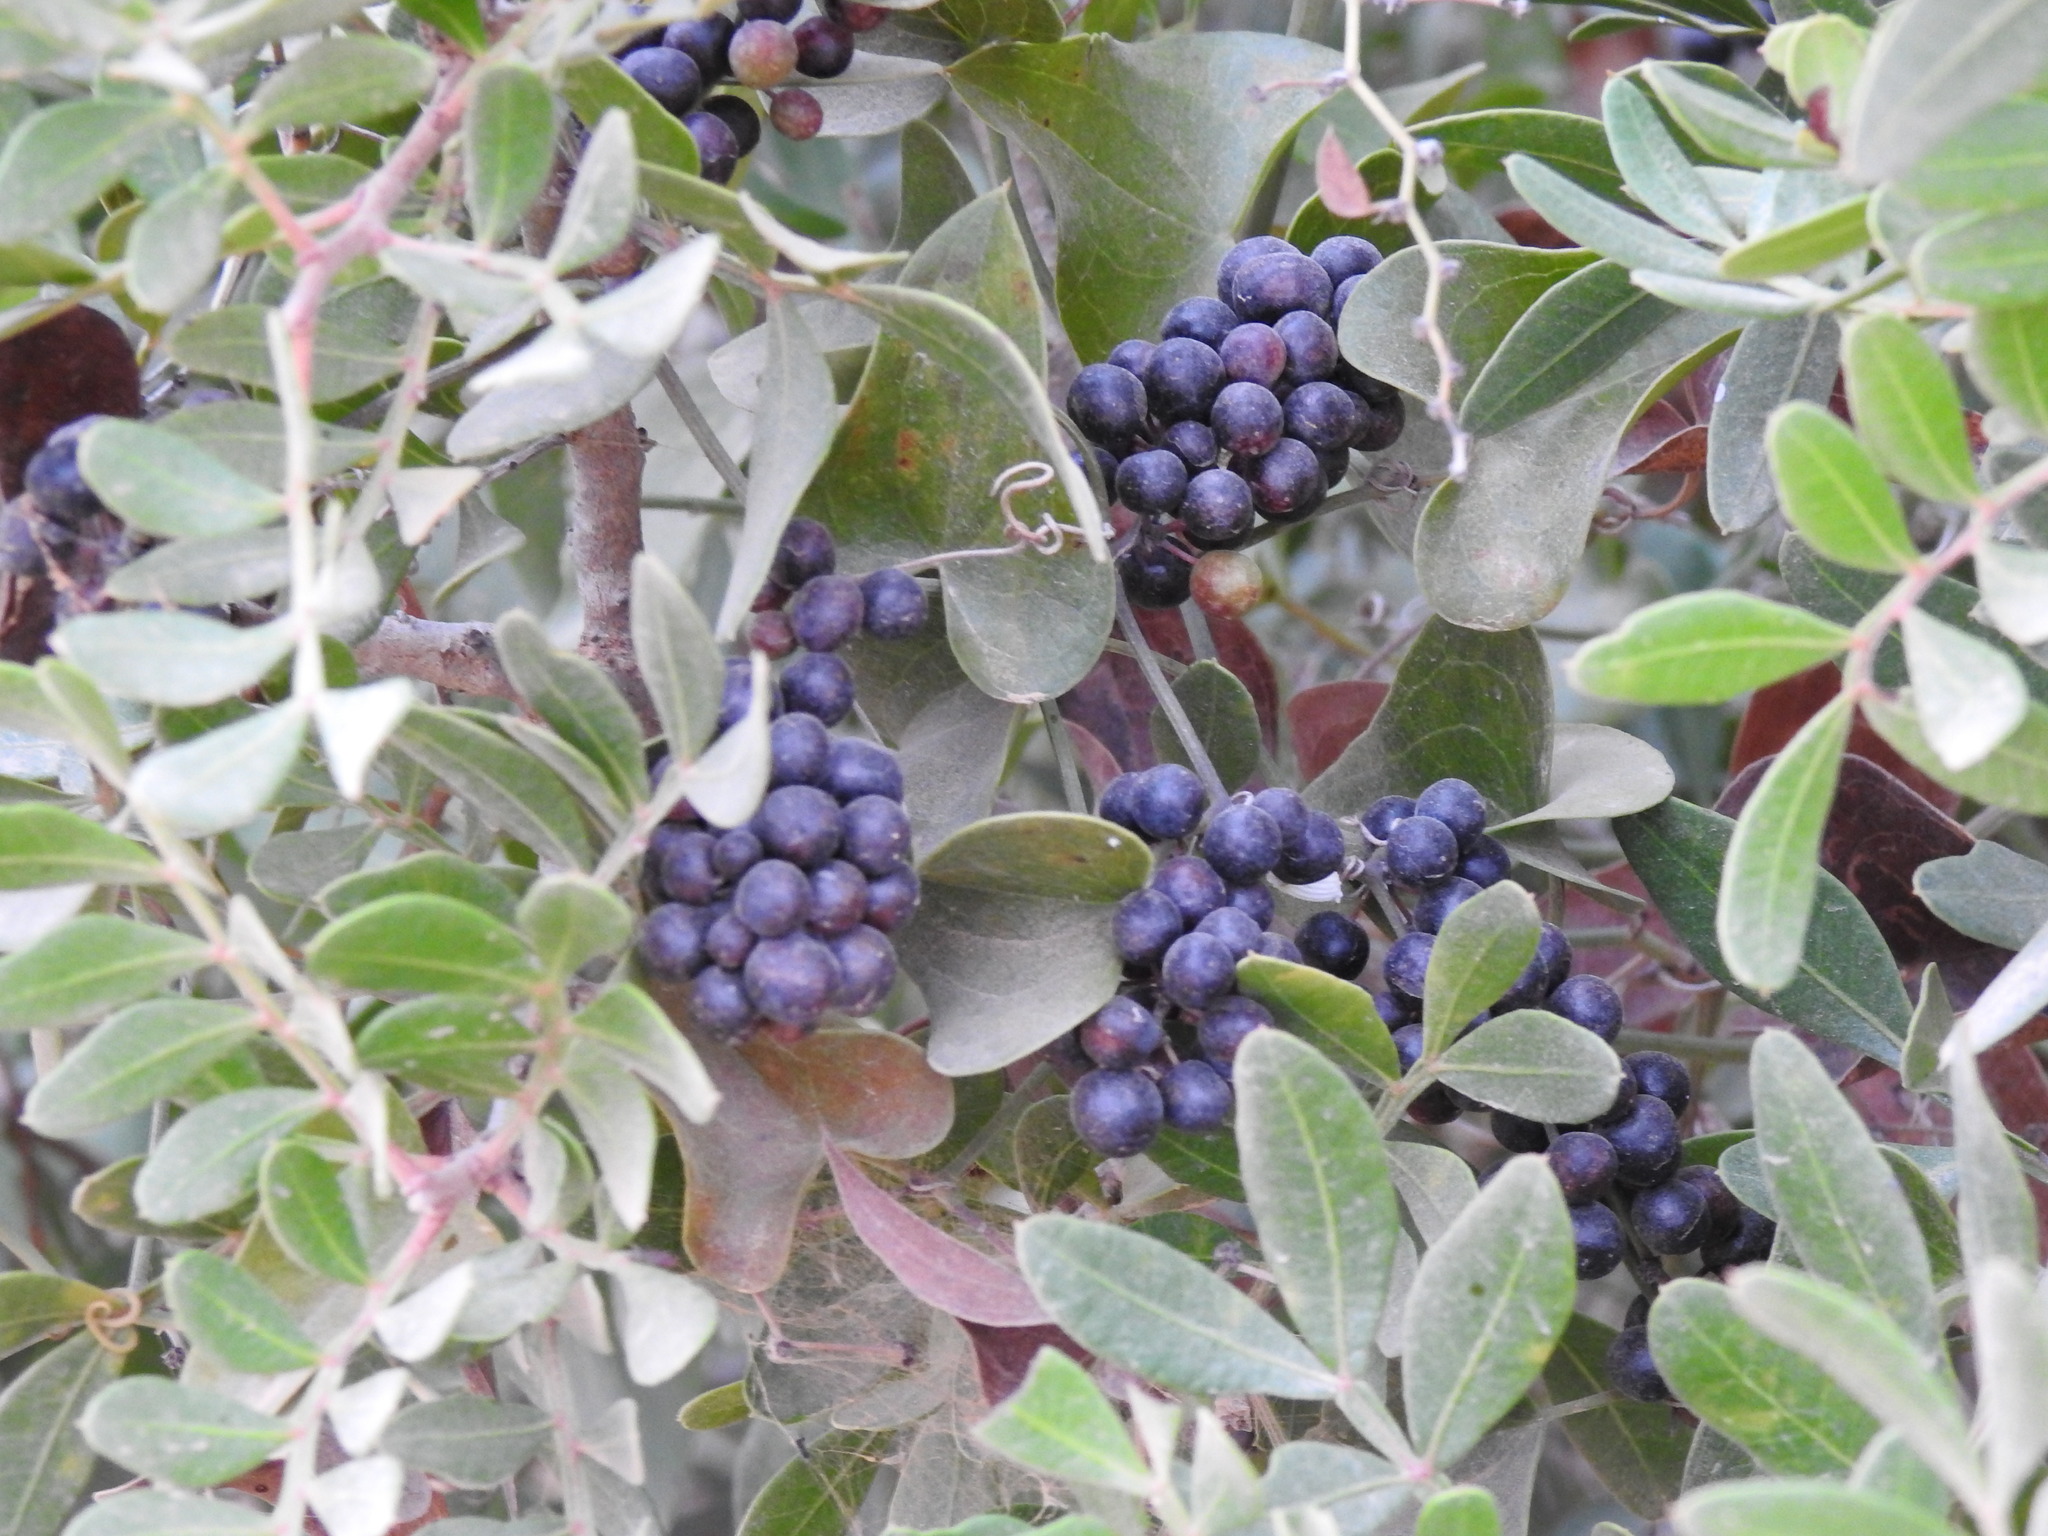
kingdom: Plantae
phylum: Tracheophyta
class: Liliopsida
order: Liliales
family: Smilacaceae
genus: Smilax
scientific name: Smilax aspera
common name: Common smilax
